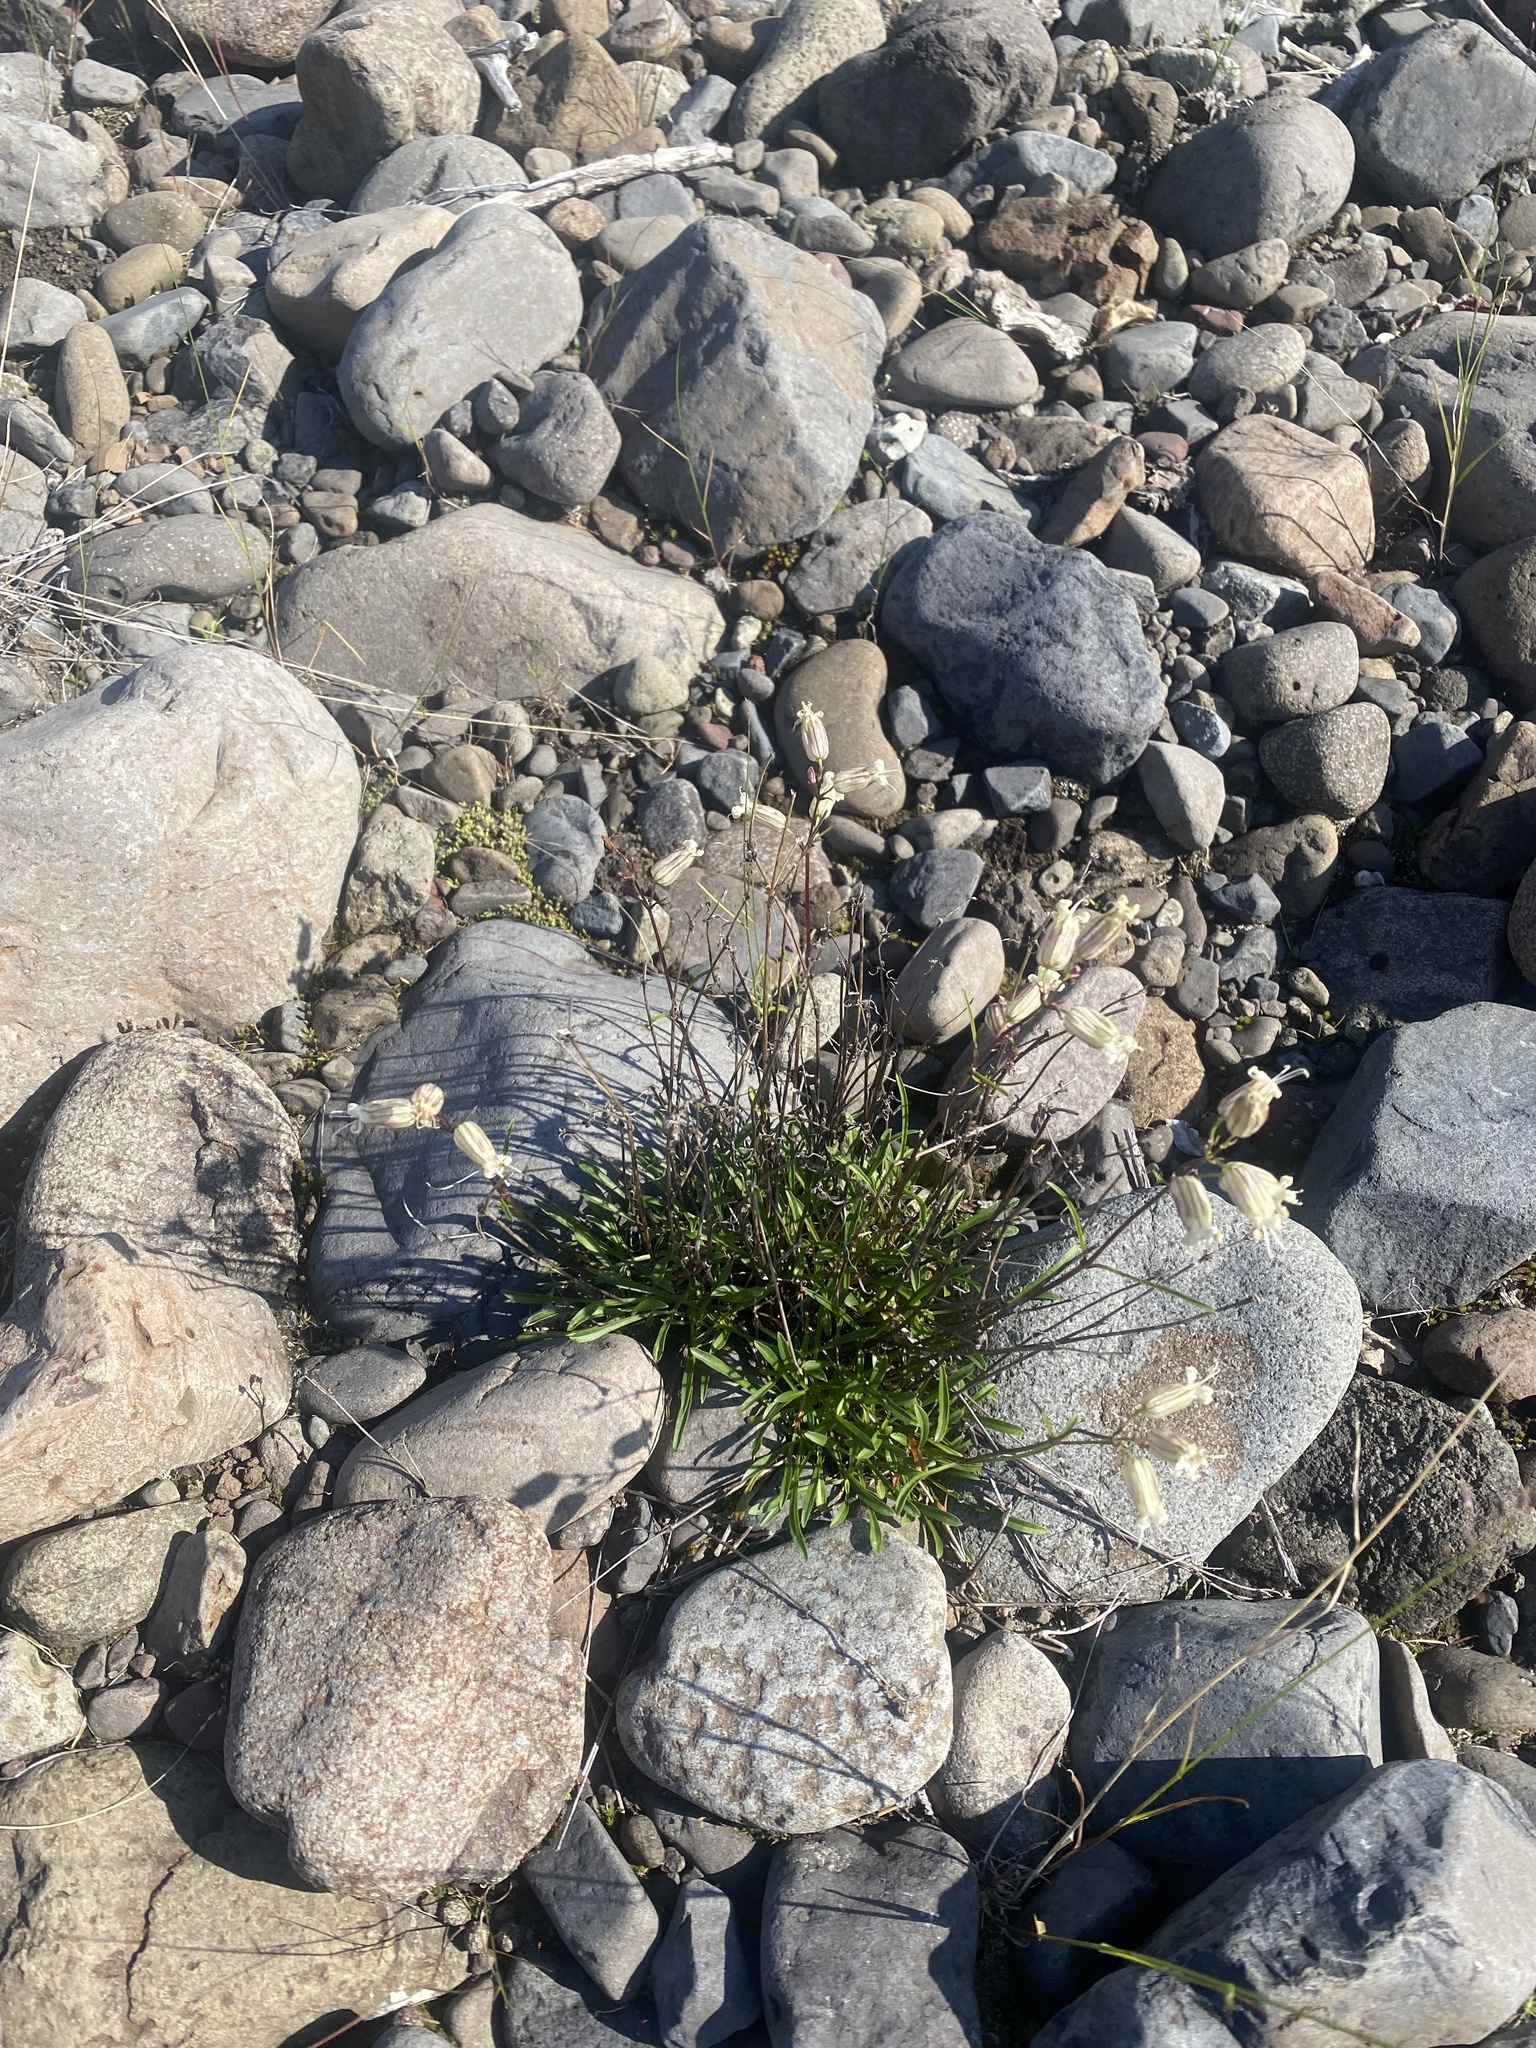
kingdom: Plantae
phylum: Tracheophyta
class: Magnoliopsida
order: Caryophyllales
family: Caryophyllaceae
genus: Silene
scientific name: Silene chamarensis
